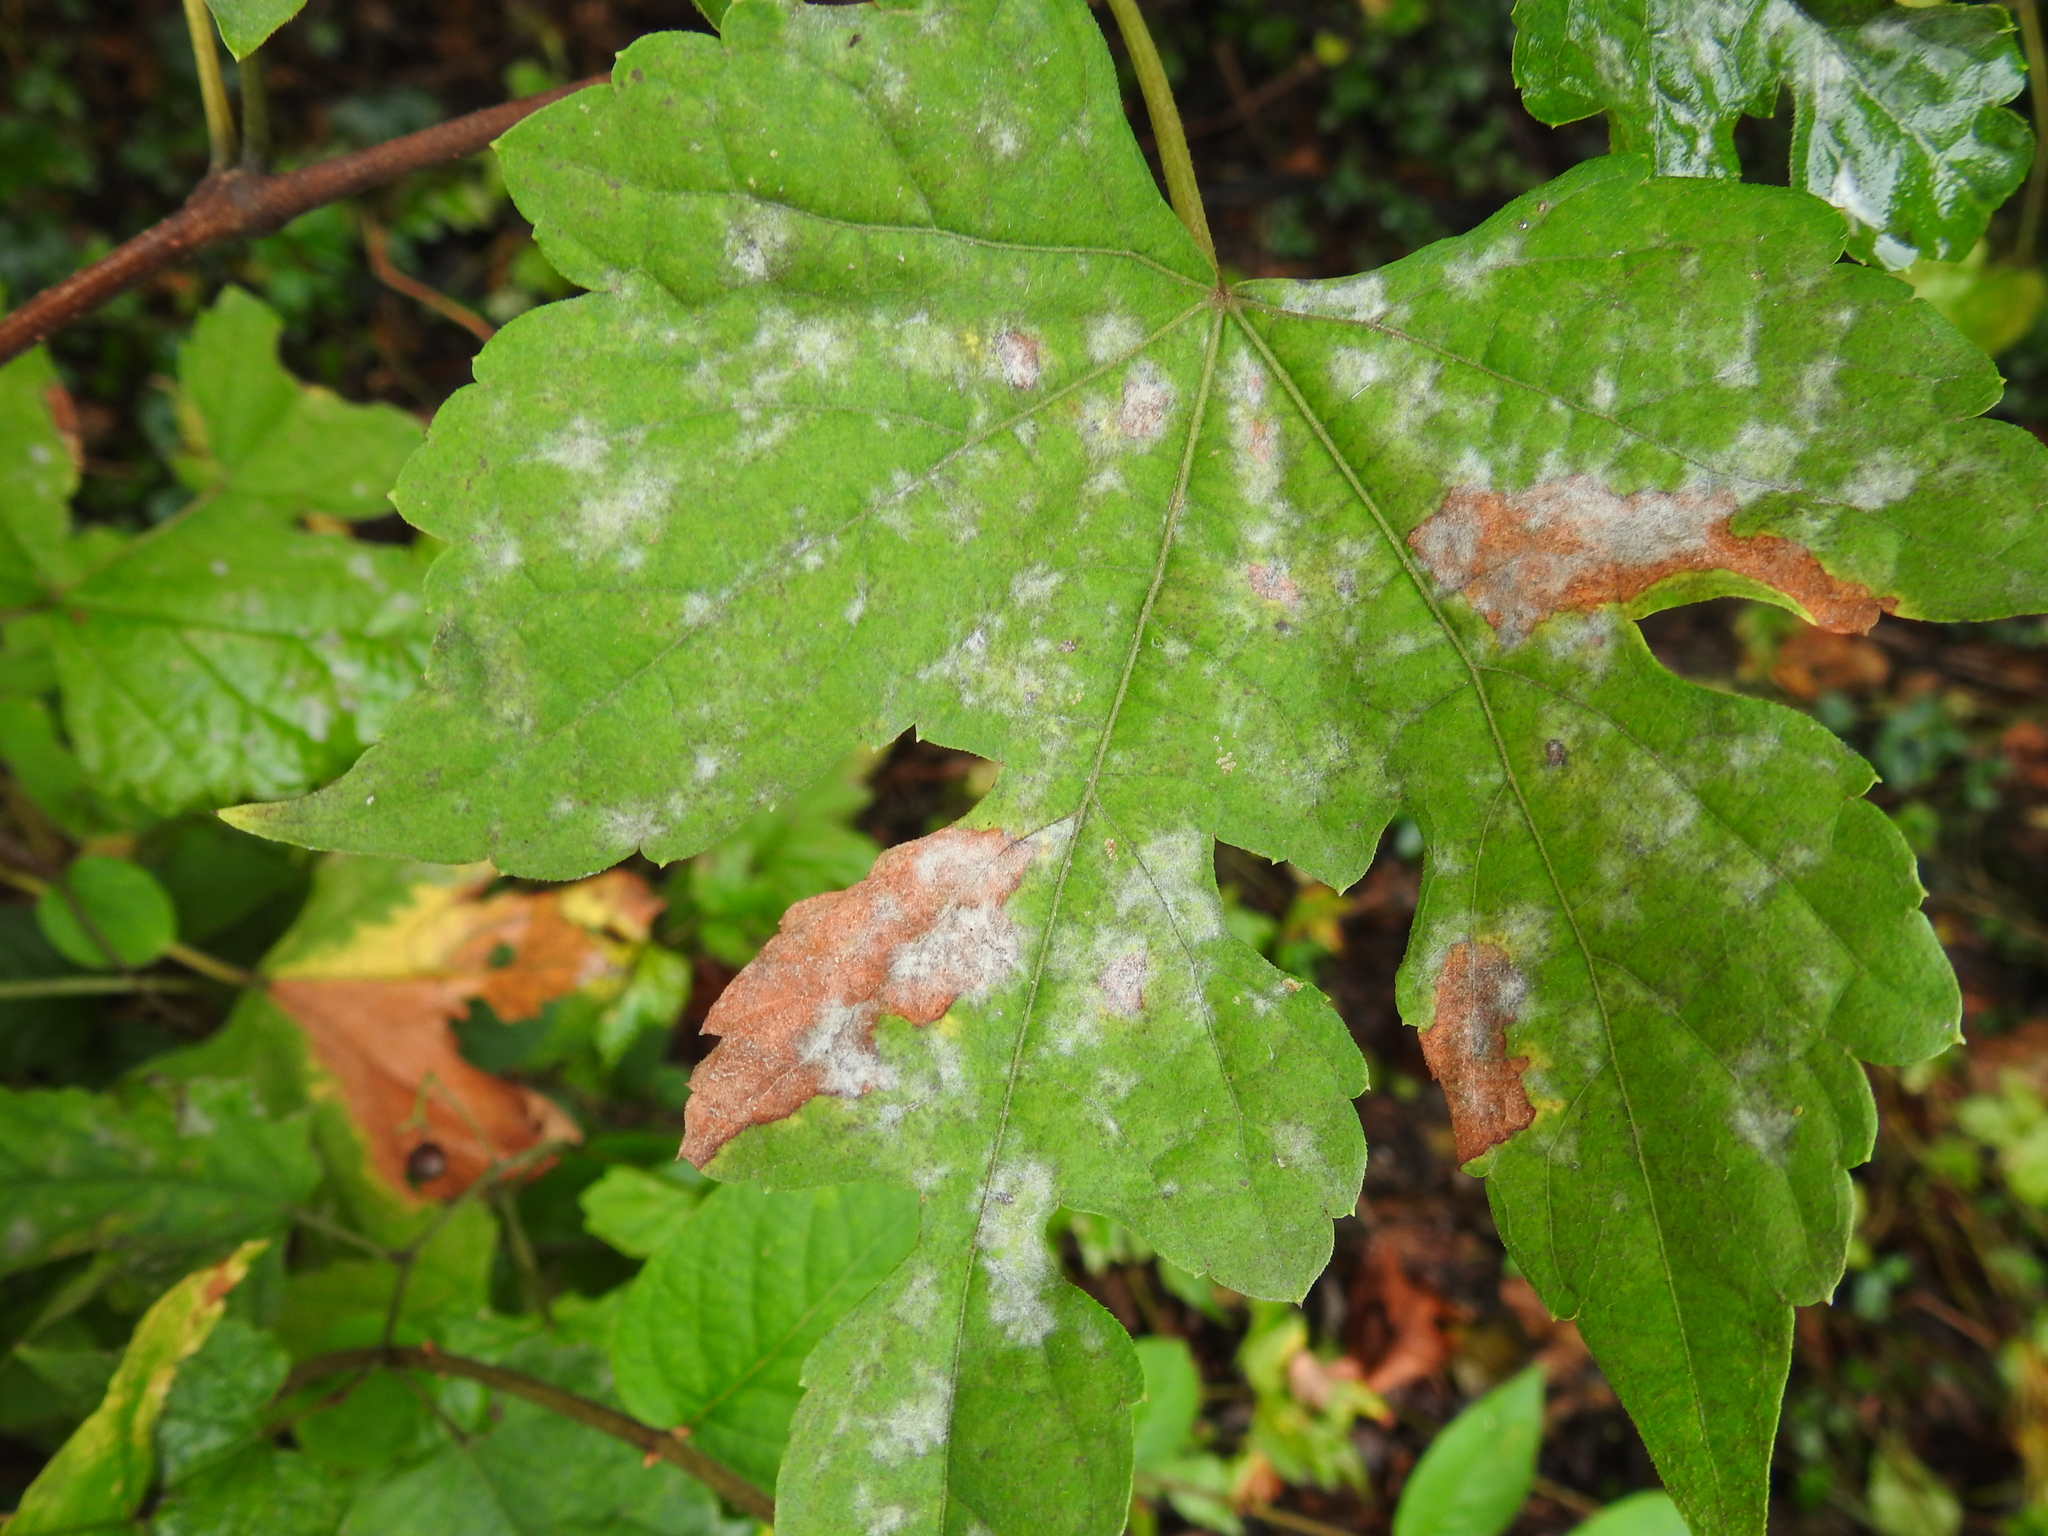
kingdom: Fungi
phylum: Ascomycota
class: Leotiomycetes
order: Helotiales
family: Erysiphaceae
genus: Erysiphe
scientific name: Erysiphe necator
